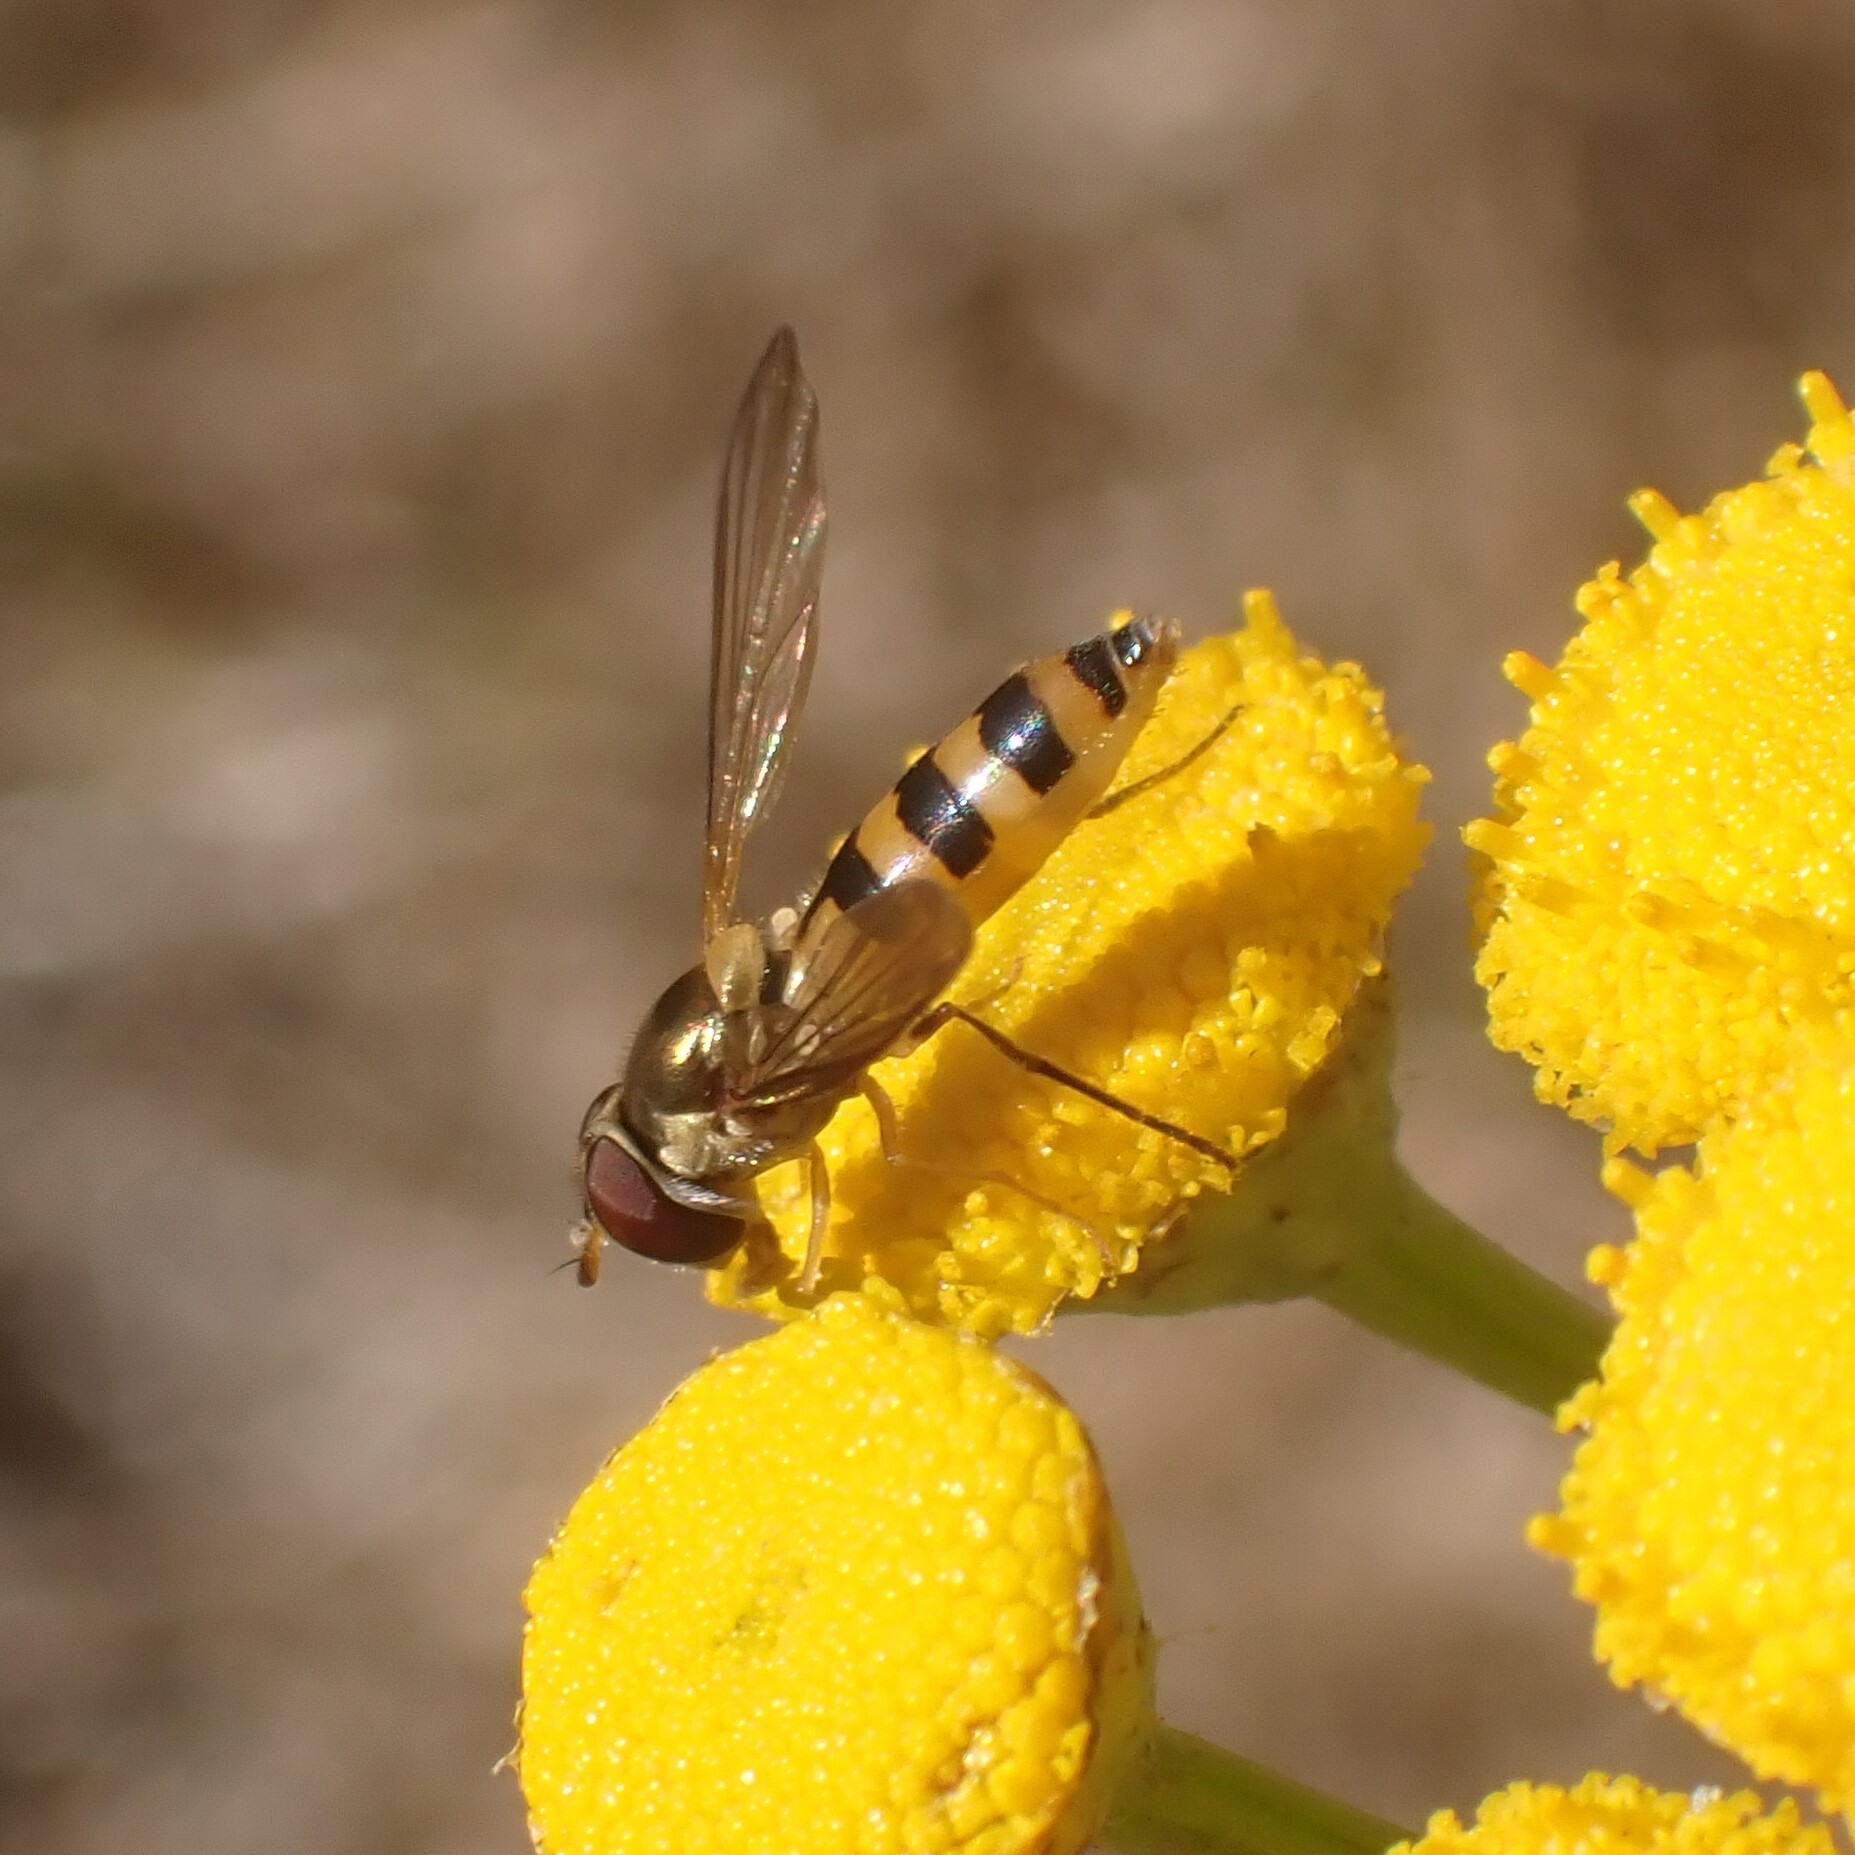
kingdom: Animalia
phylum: Arthropoda
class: Insecta
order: Diptera
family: Syrphidae
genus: Meliscaeva
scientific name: Meliscaeva cinctella
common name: American thintail fly
